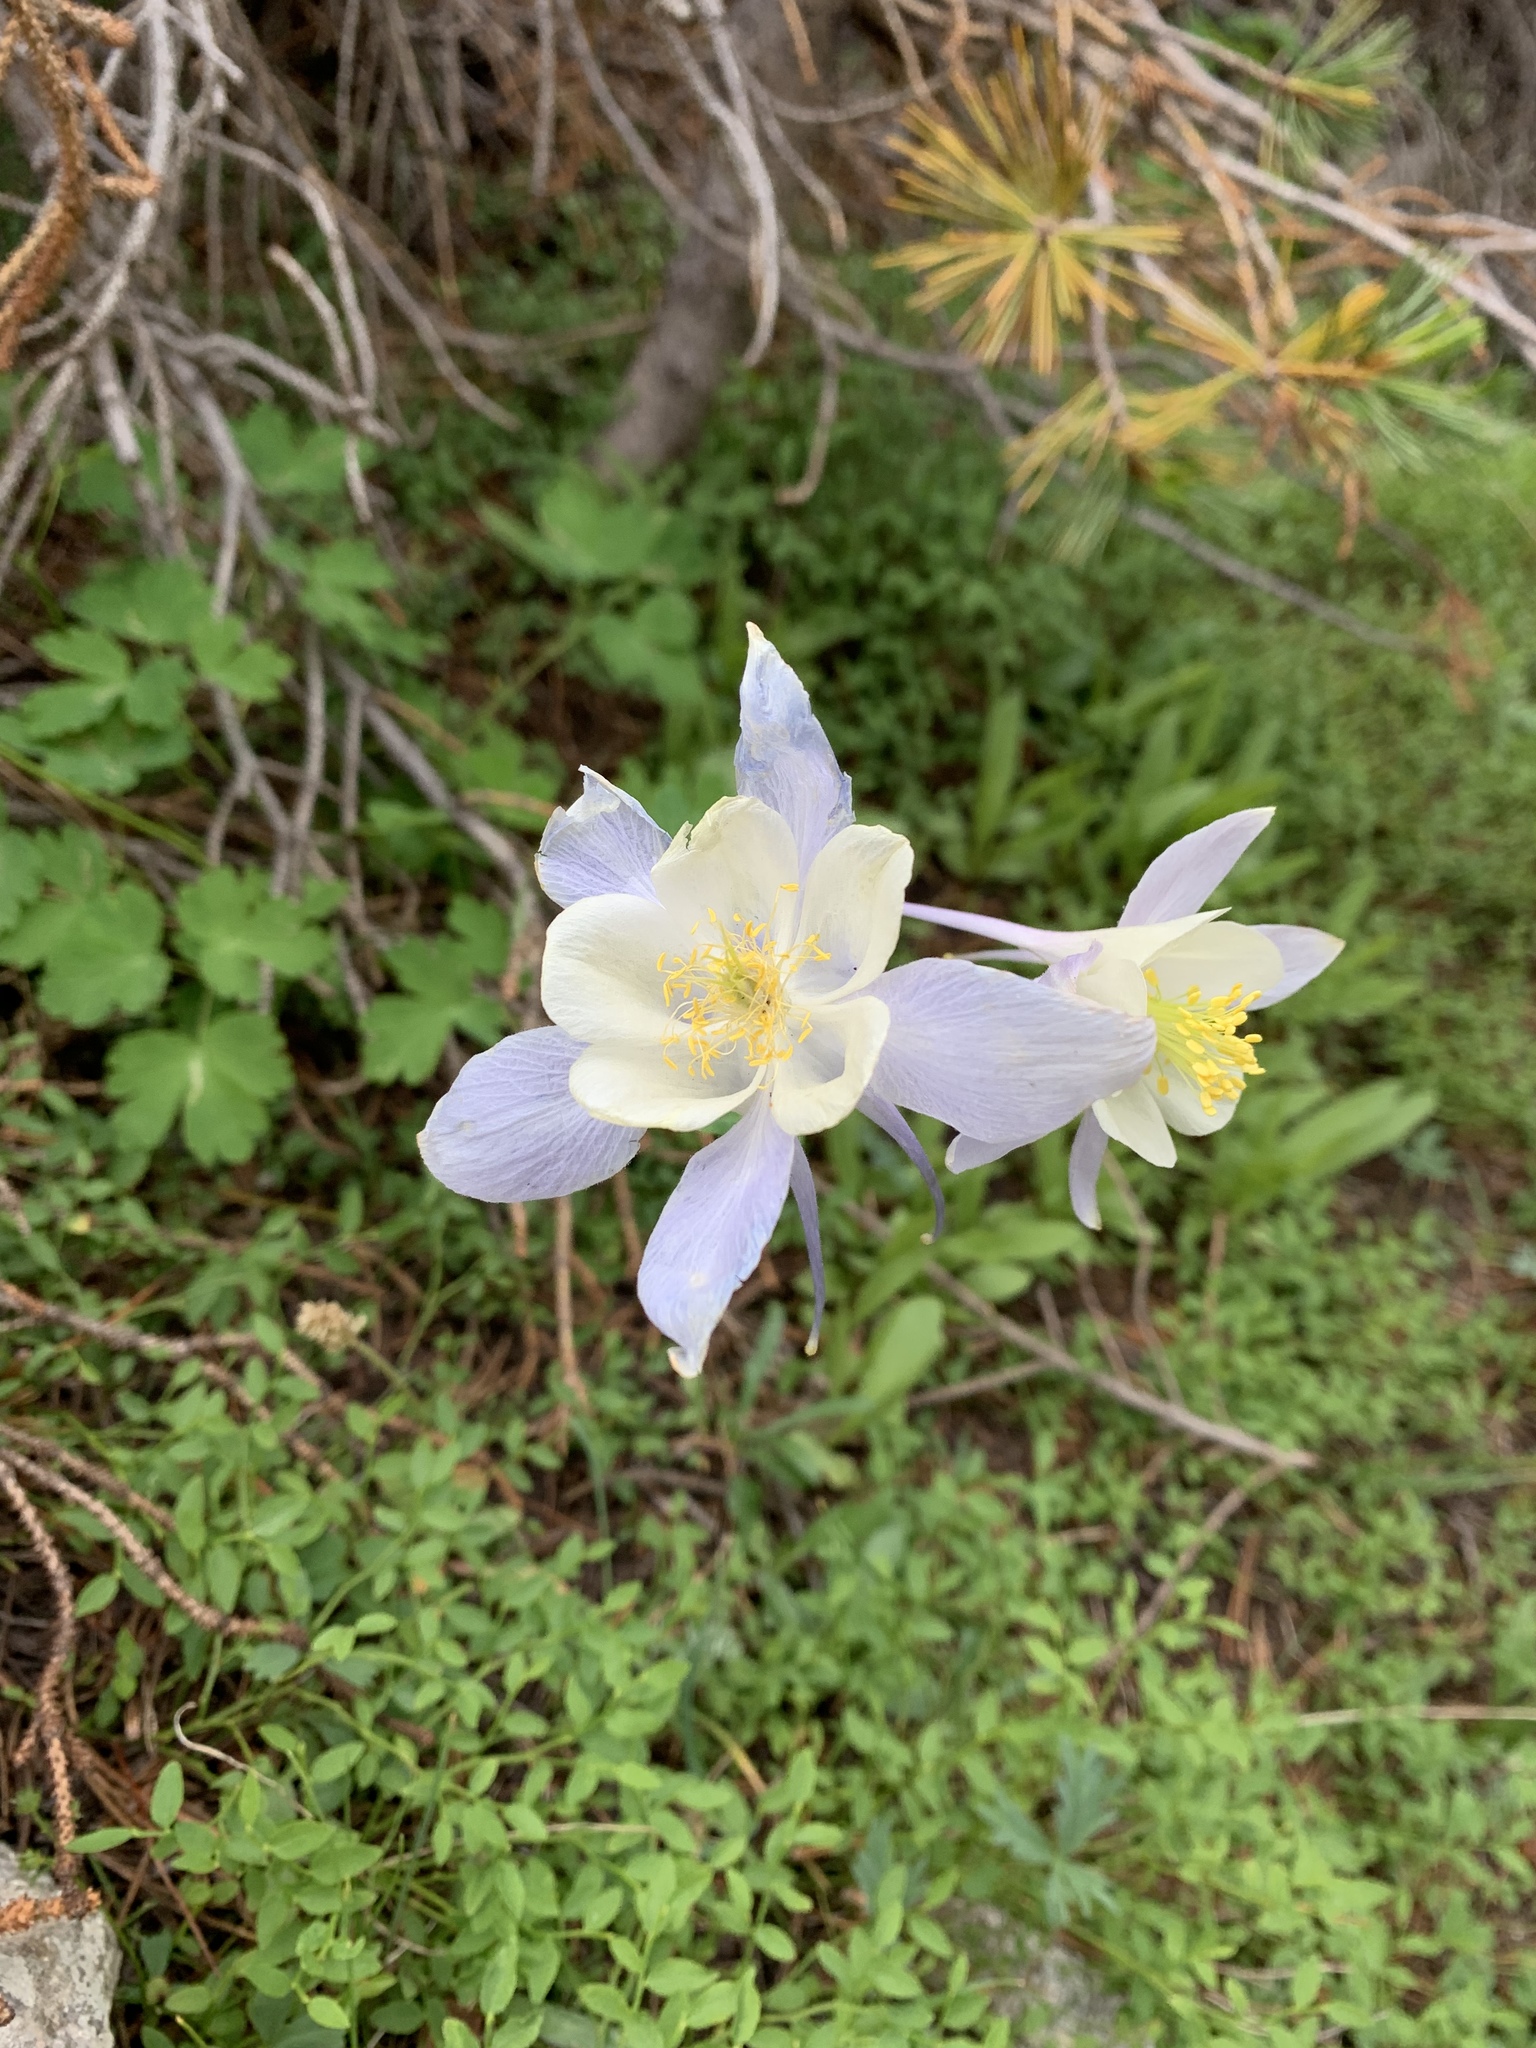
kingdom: Plantae
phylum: Tracheophyta
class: Magnoliopsida
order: Ranunculales
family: Ranunculaceae
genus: Aquilegia
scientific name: Aquilegia coerulea
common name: Rocky mountain columbine
